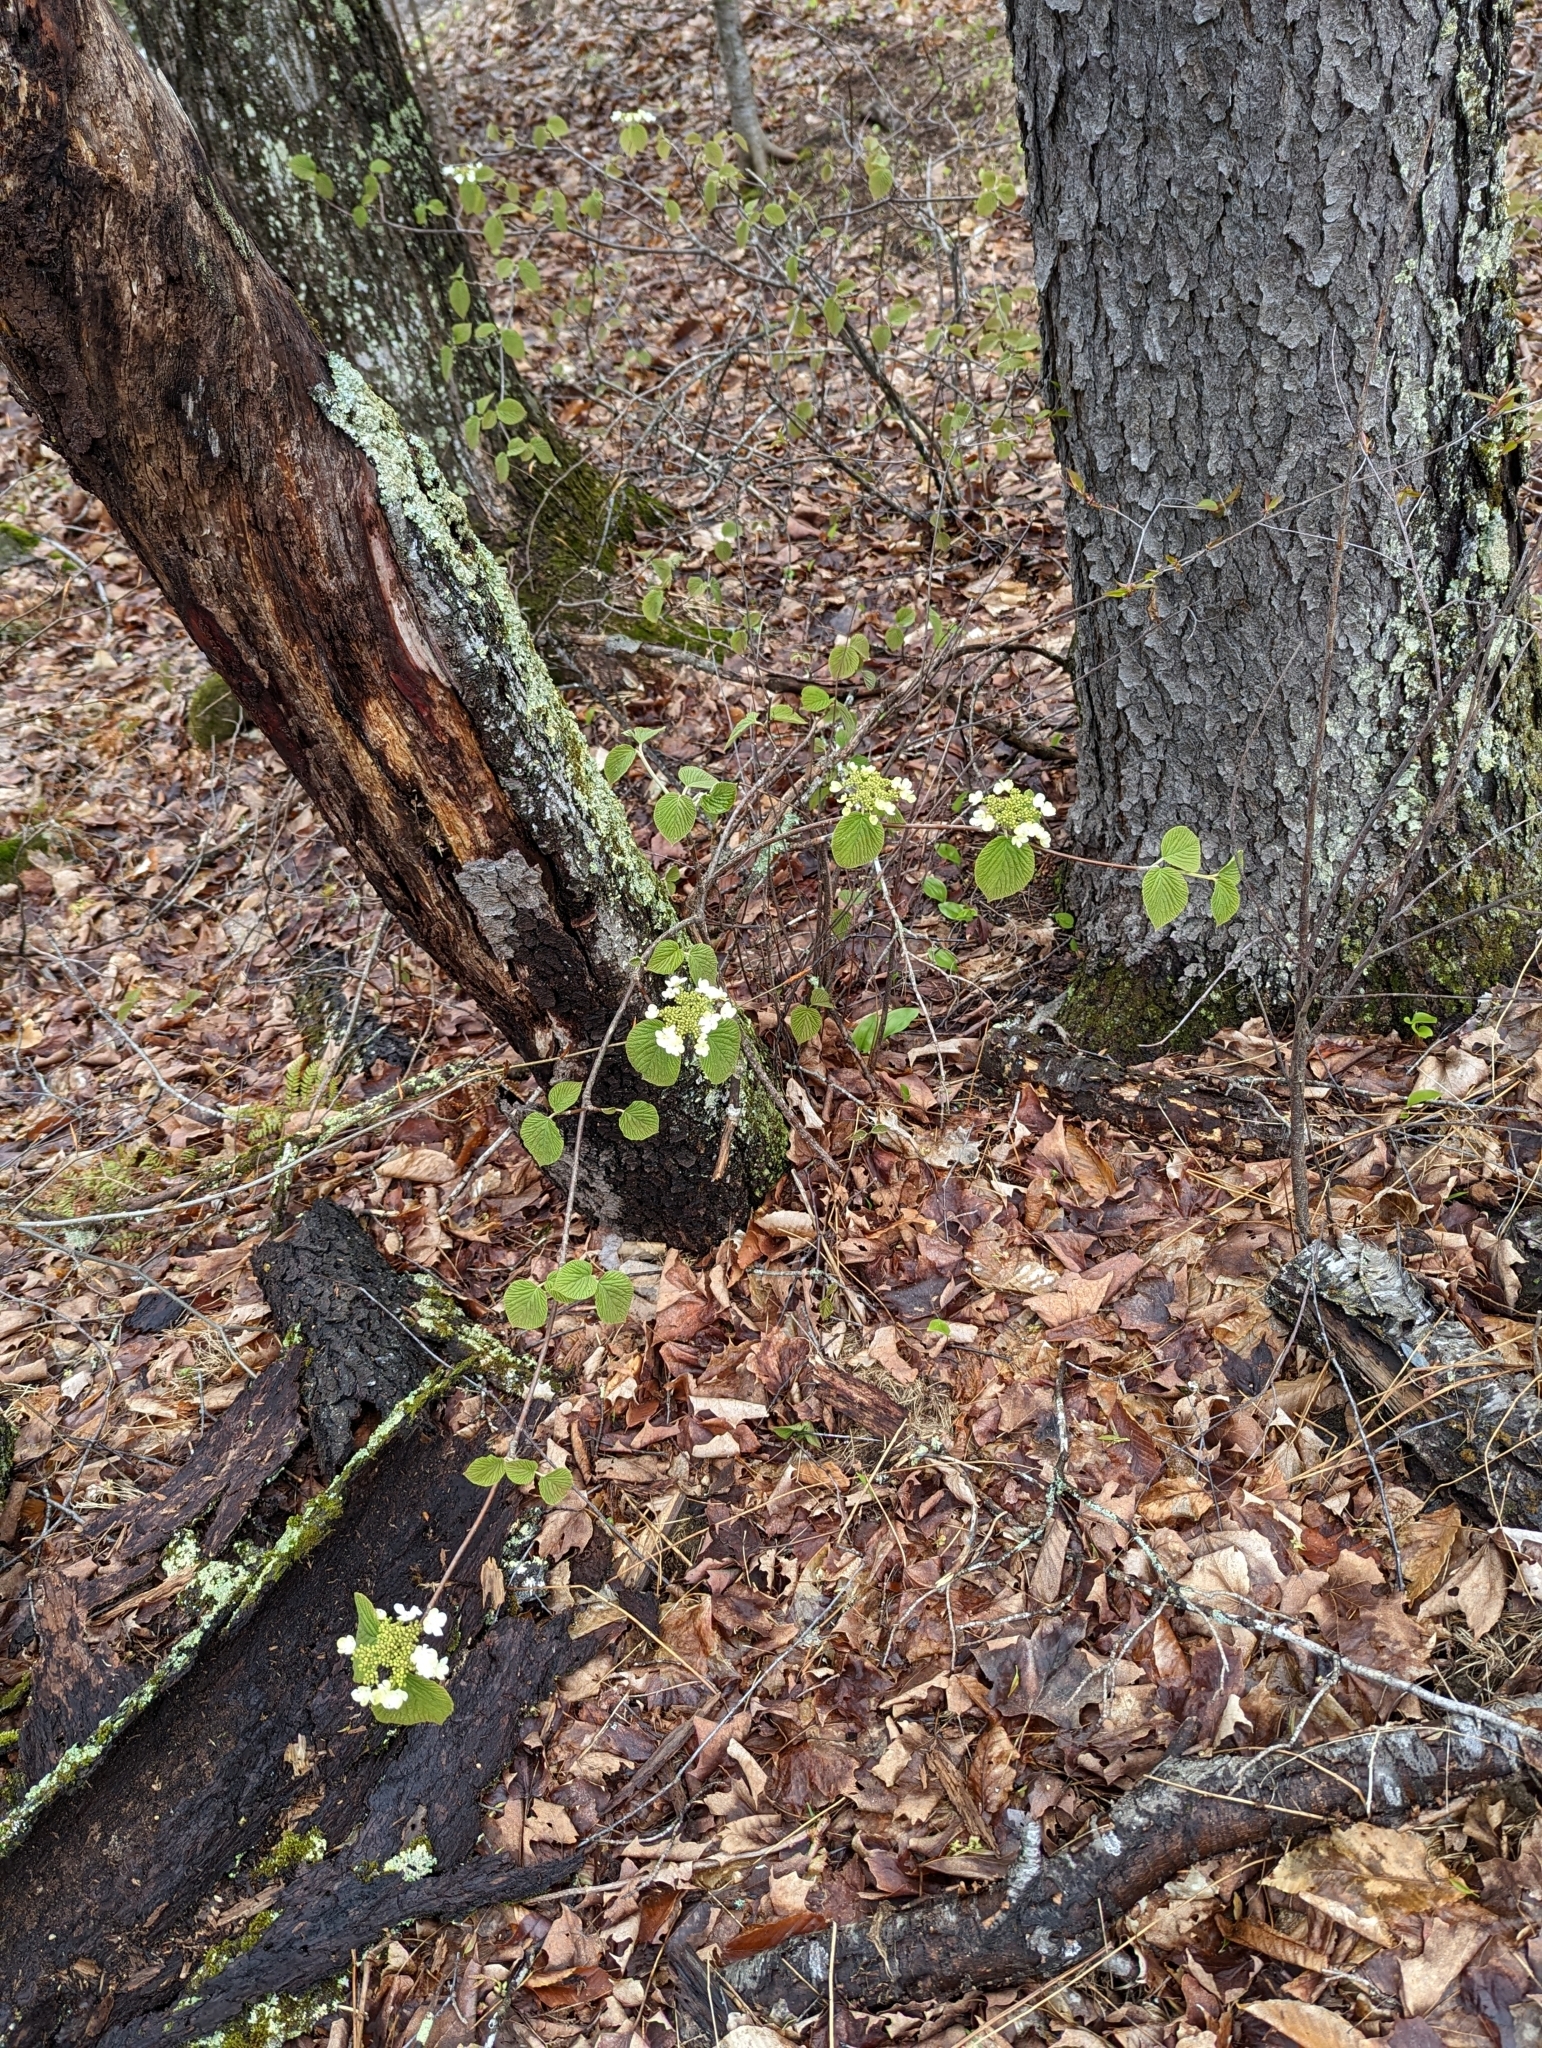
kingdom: Plantae
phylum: Tracheophyta
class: Magnoliopsida
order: Dipsacales
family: Viburnaceae
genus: Viburnum
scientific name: Viburnum lantanoides
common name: Hobblebush
